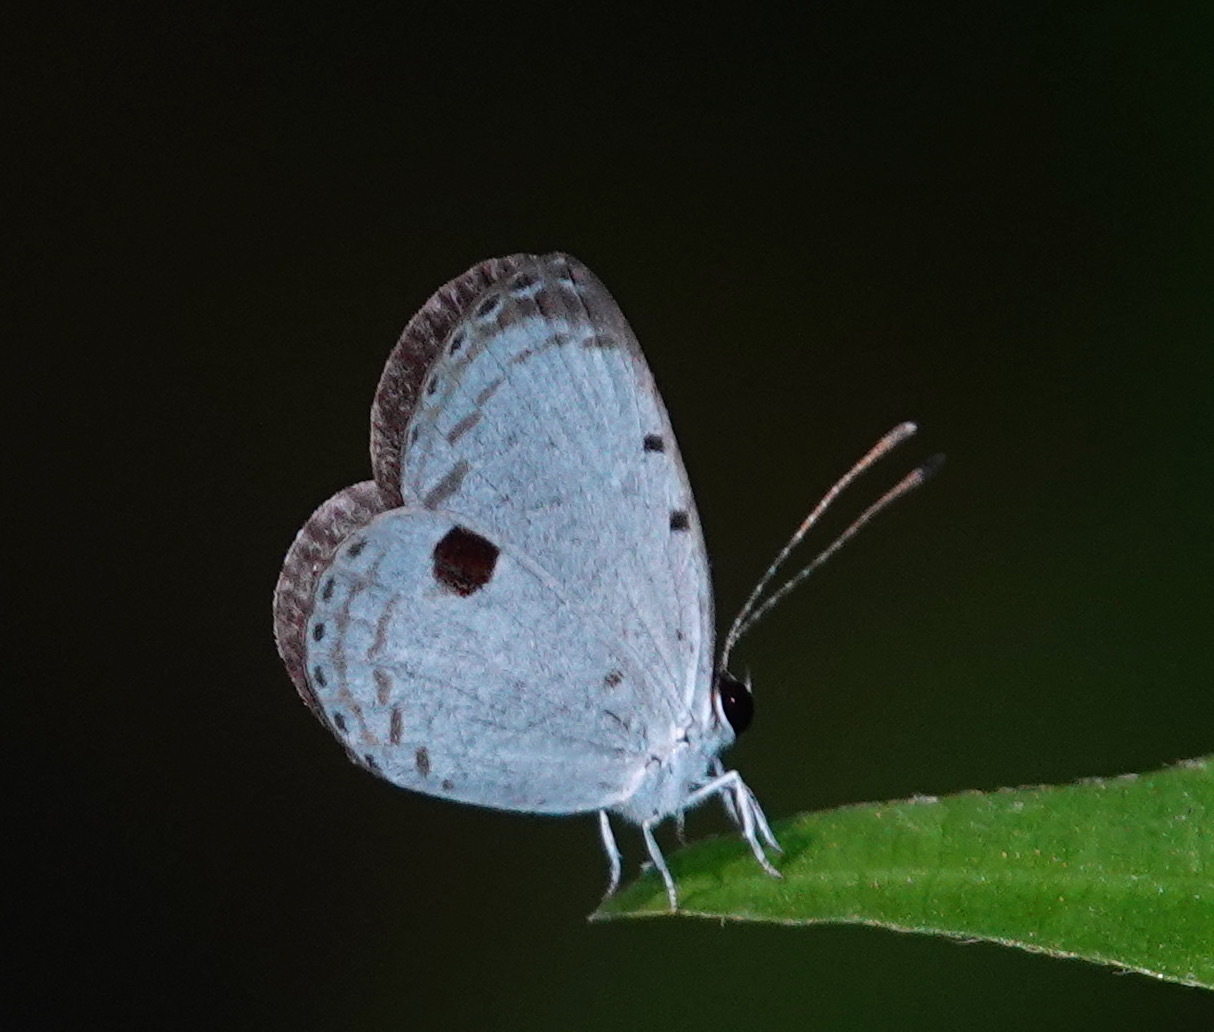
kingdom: Animalia
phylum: Arthropoda
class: Insecta
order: Lepidoptera
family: Lycaenidae
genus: Pithecops
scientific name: Pithecops corvus
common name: Forest quaker
